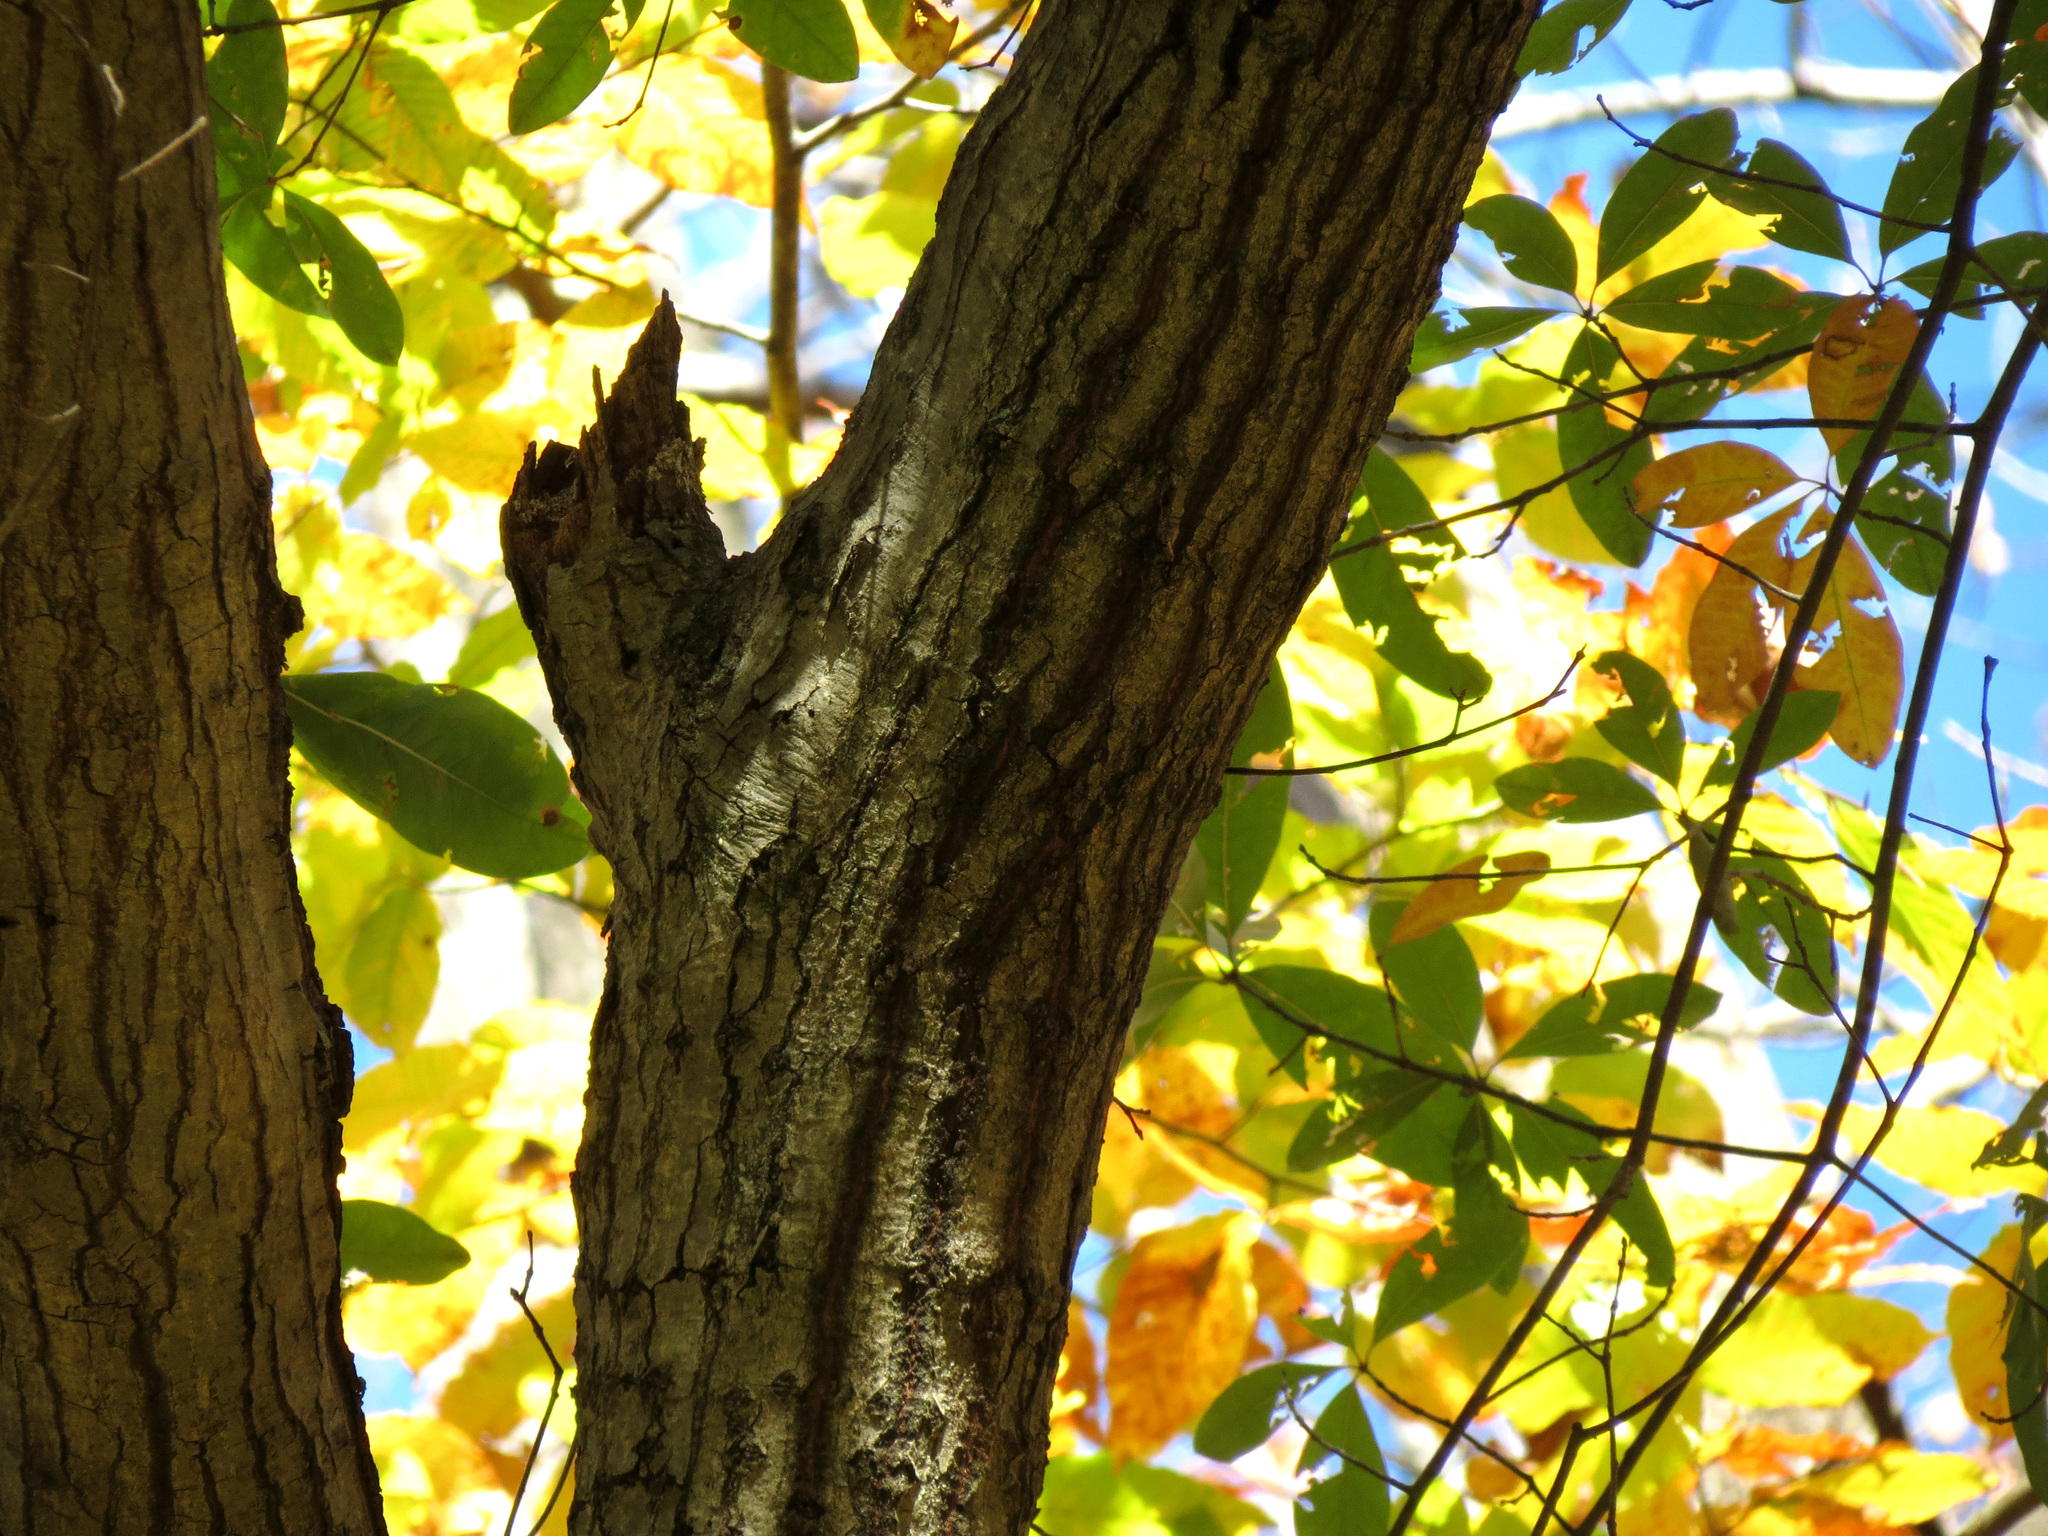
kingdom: Plantae
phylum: Tracheophyta
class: Magnoliopsida
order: Cornales
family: Nyssaceae
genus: Nyssa
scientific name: Nyssa sylvatica
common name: Black tupelo
